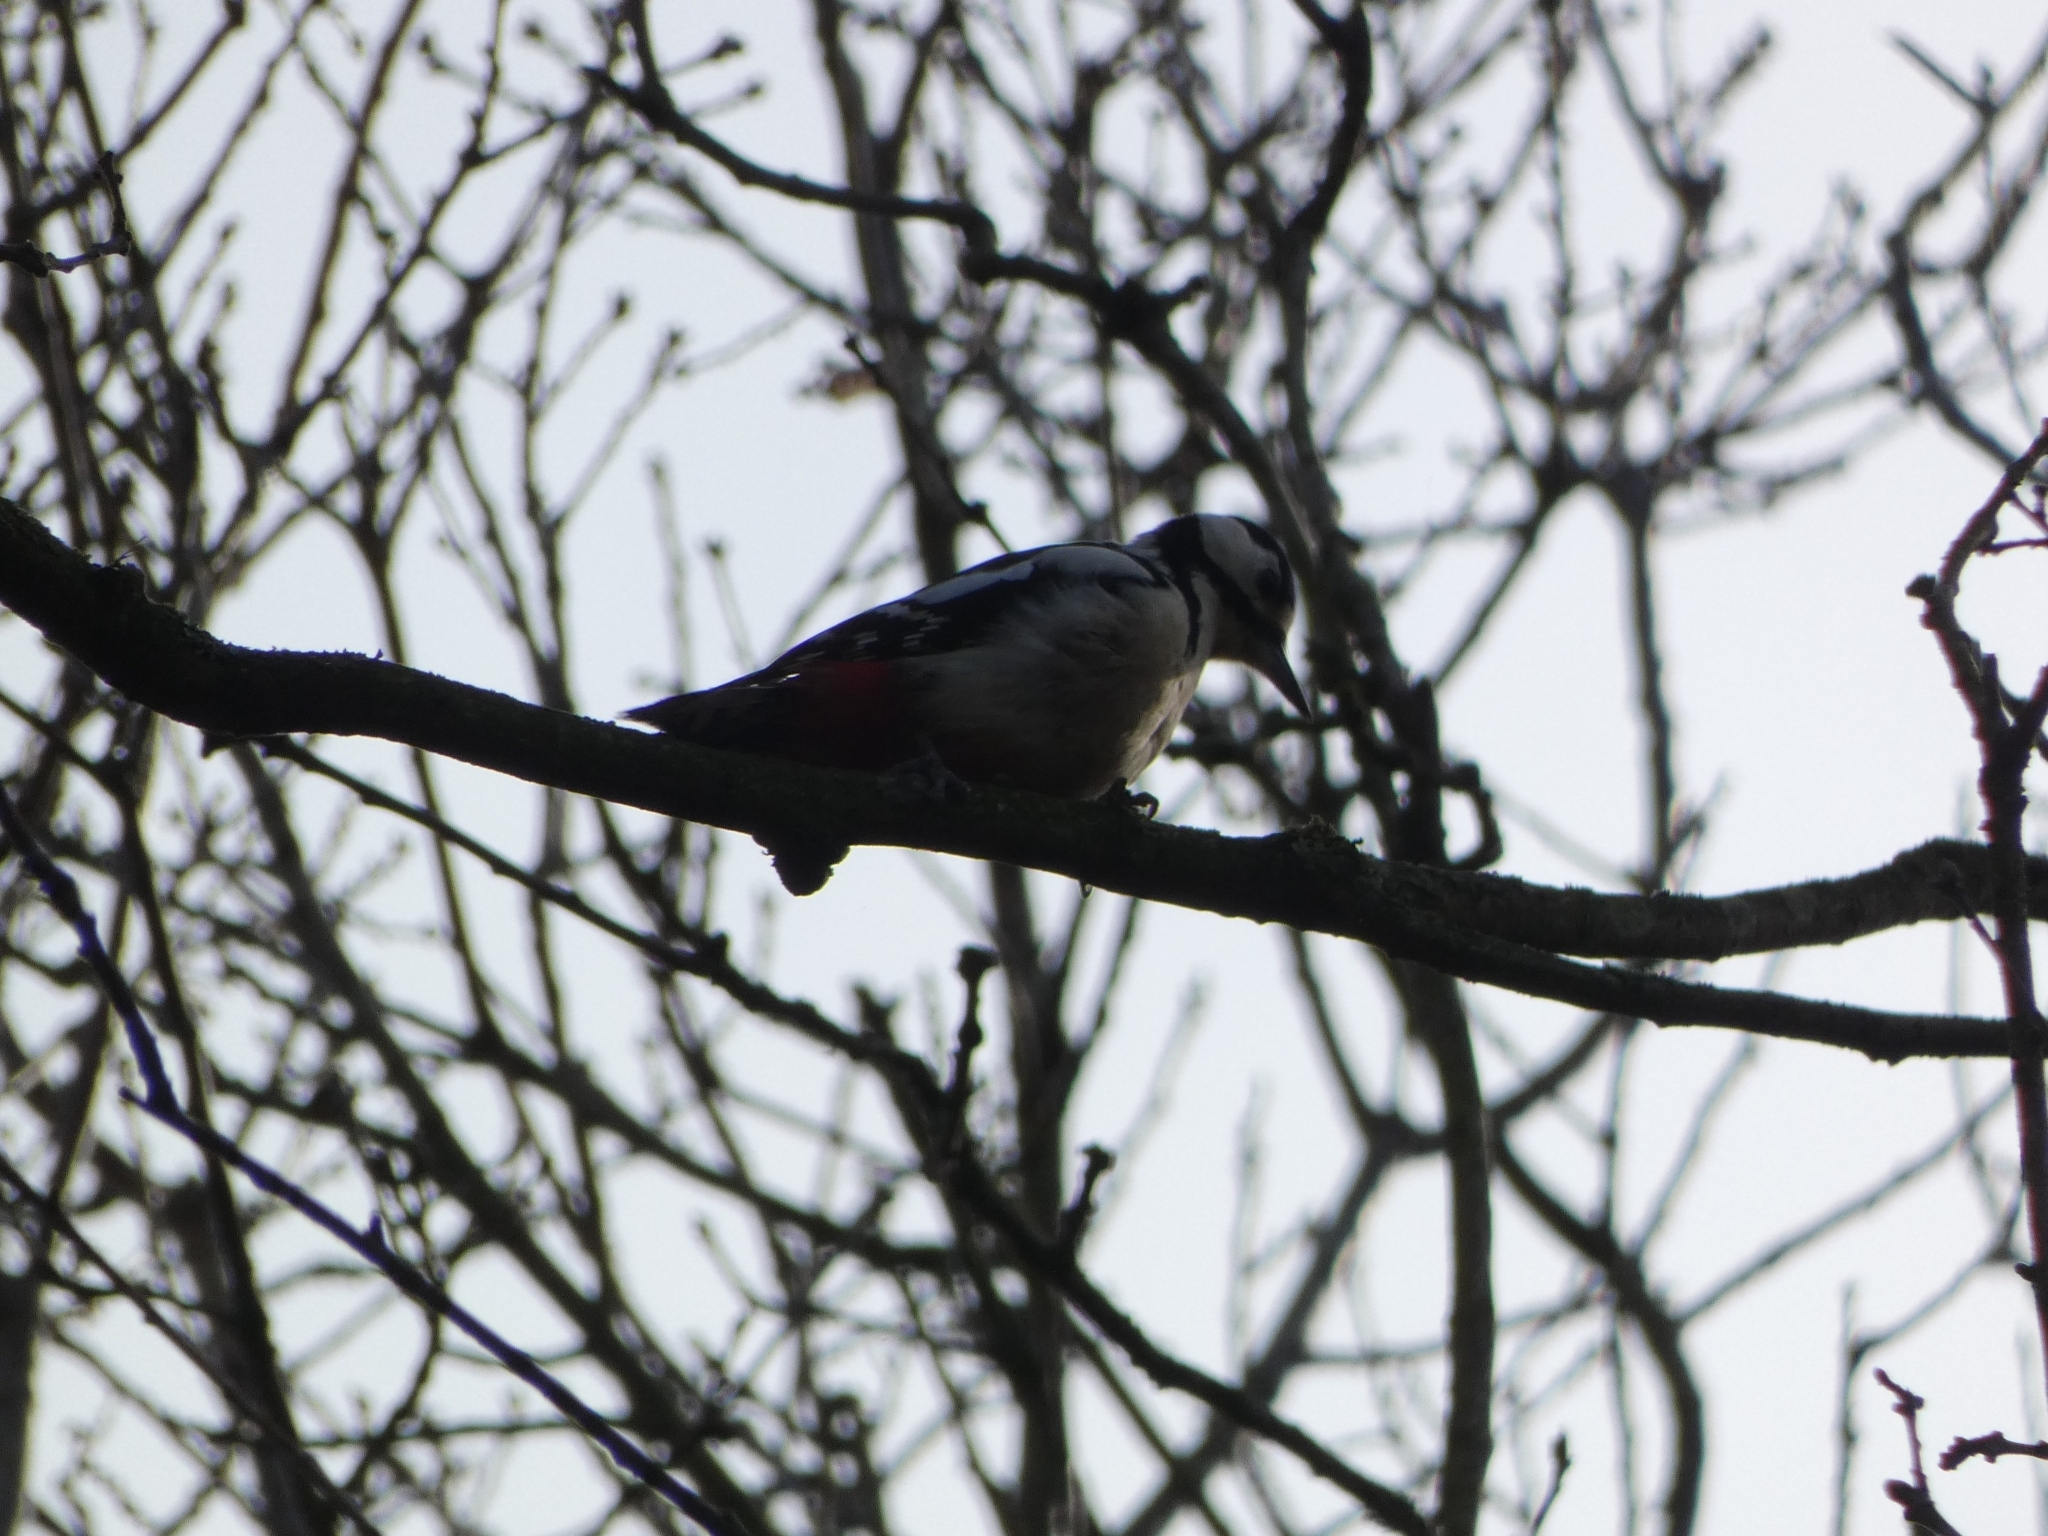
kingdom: Animalia
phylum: Chordata
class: Aves
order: Piciformes
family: Picidae
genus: Dendrocopos
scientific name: Dendrocopos major
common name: Great spotted woodpecker
